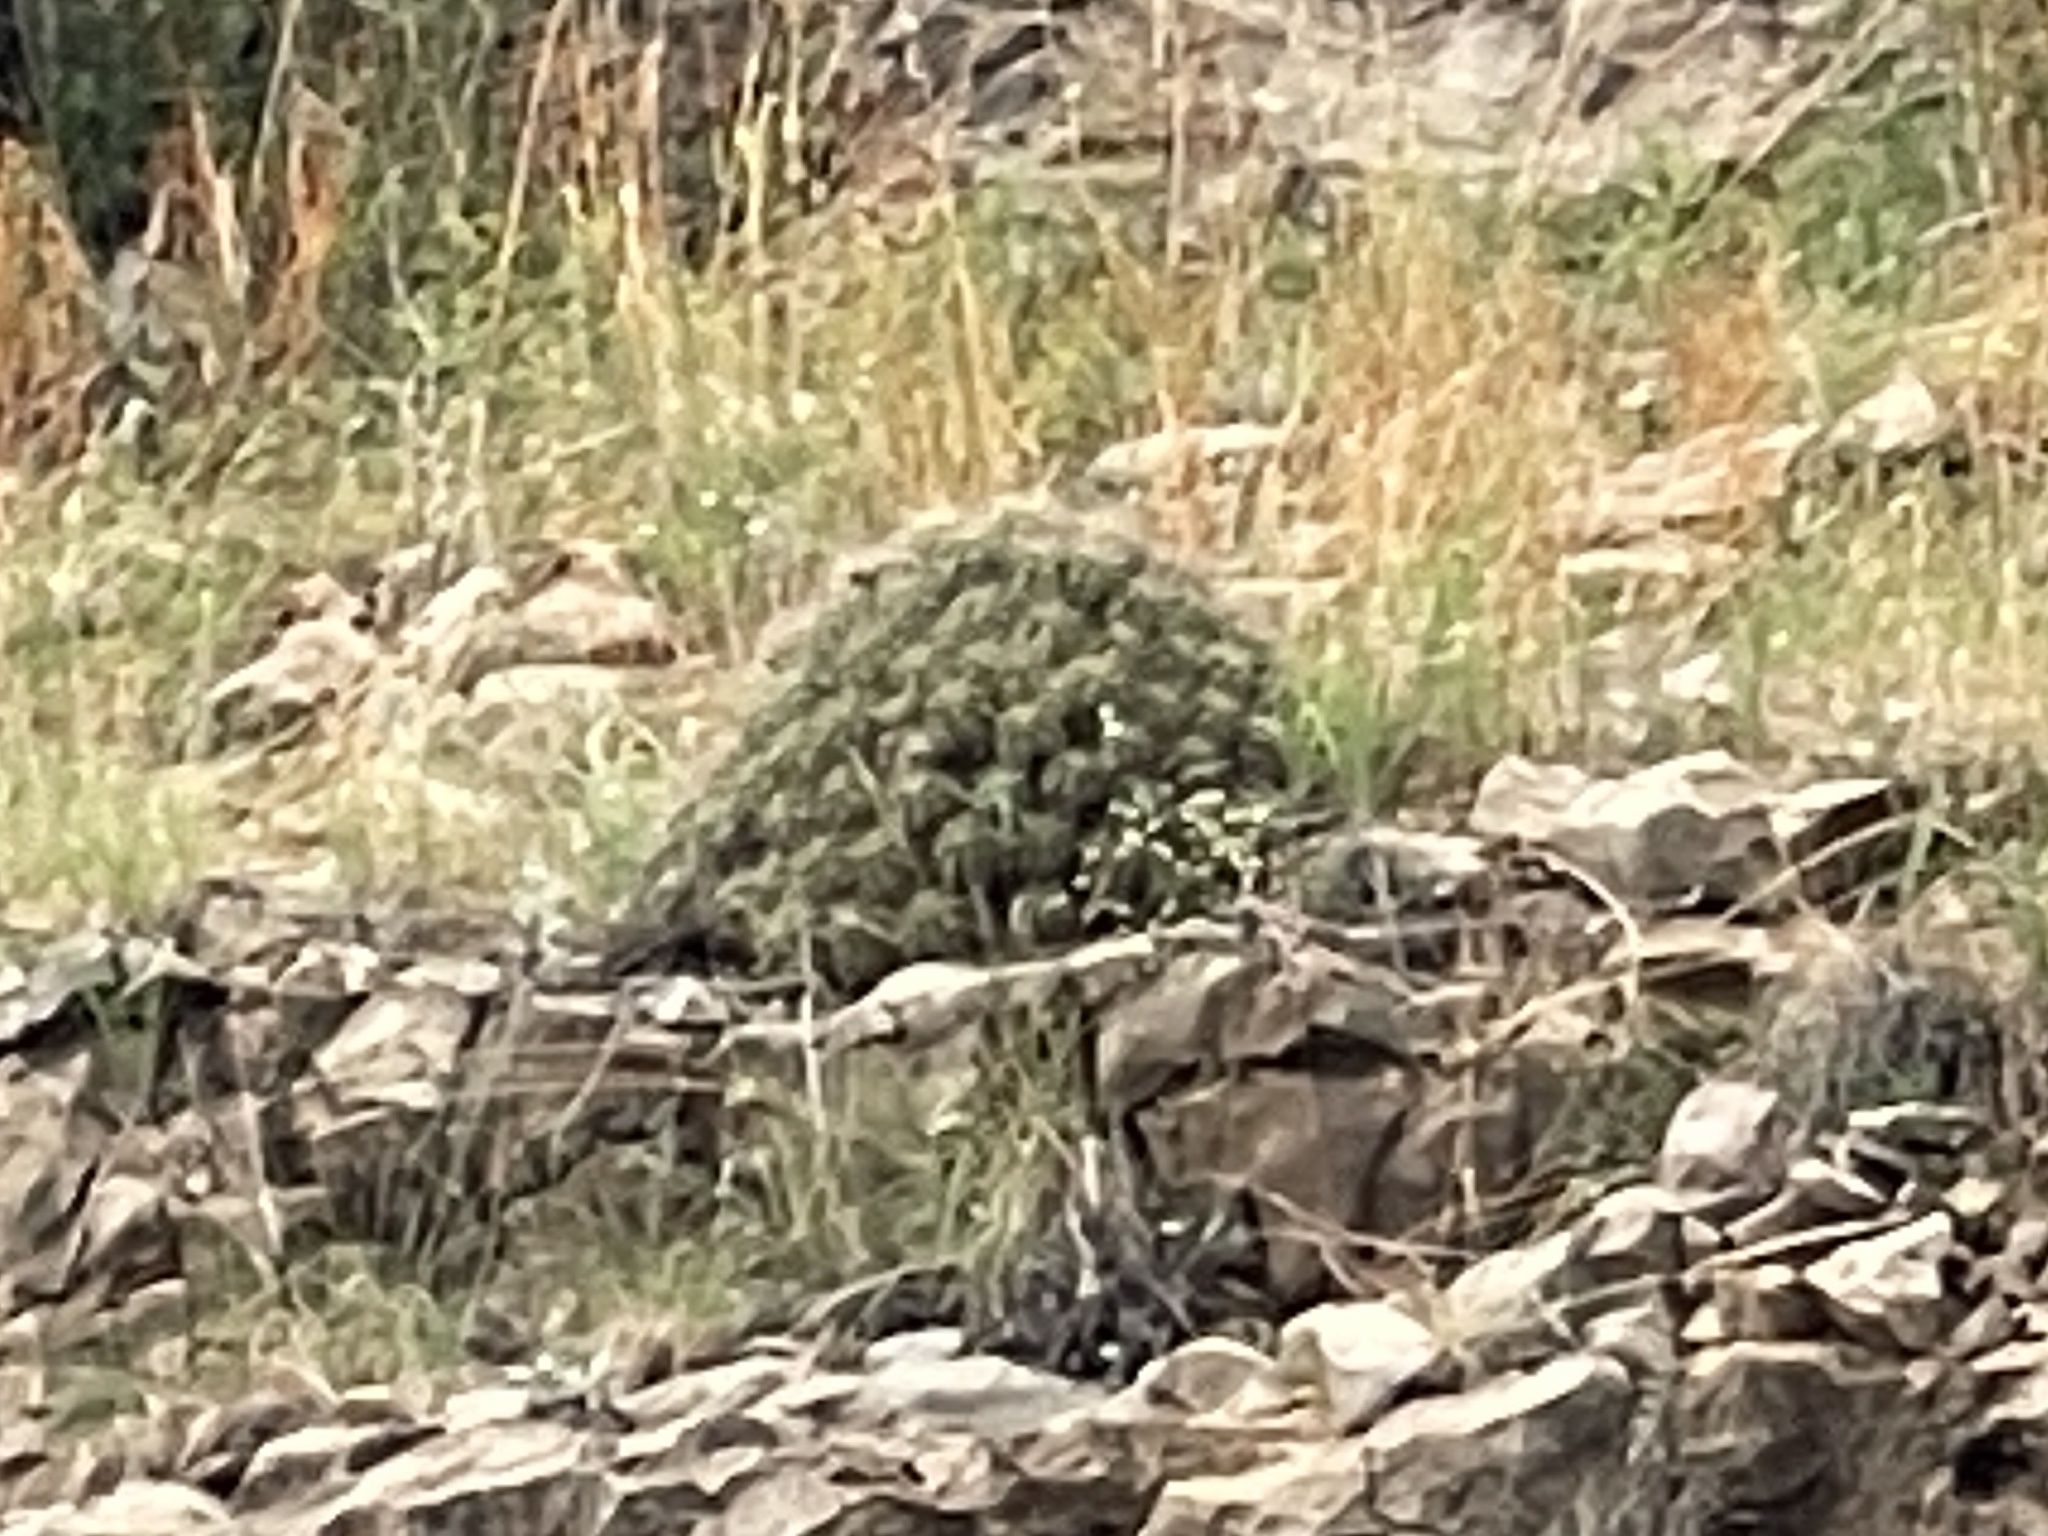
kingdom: Plantae
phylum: Tracheophyta
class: Magnoliopsida
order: Caryophyllales
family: Cactaceae
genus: Echinocereus
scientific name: Echinocereus stramineus
